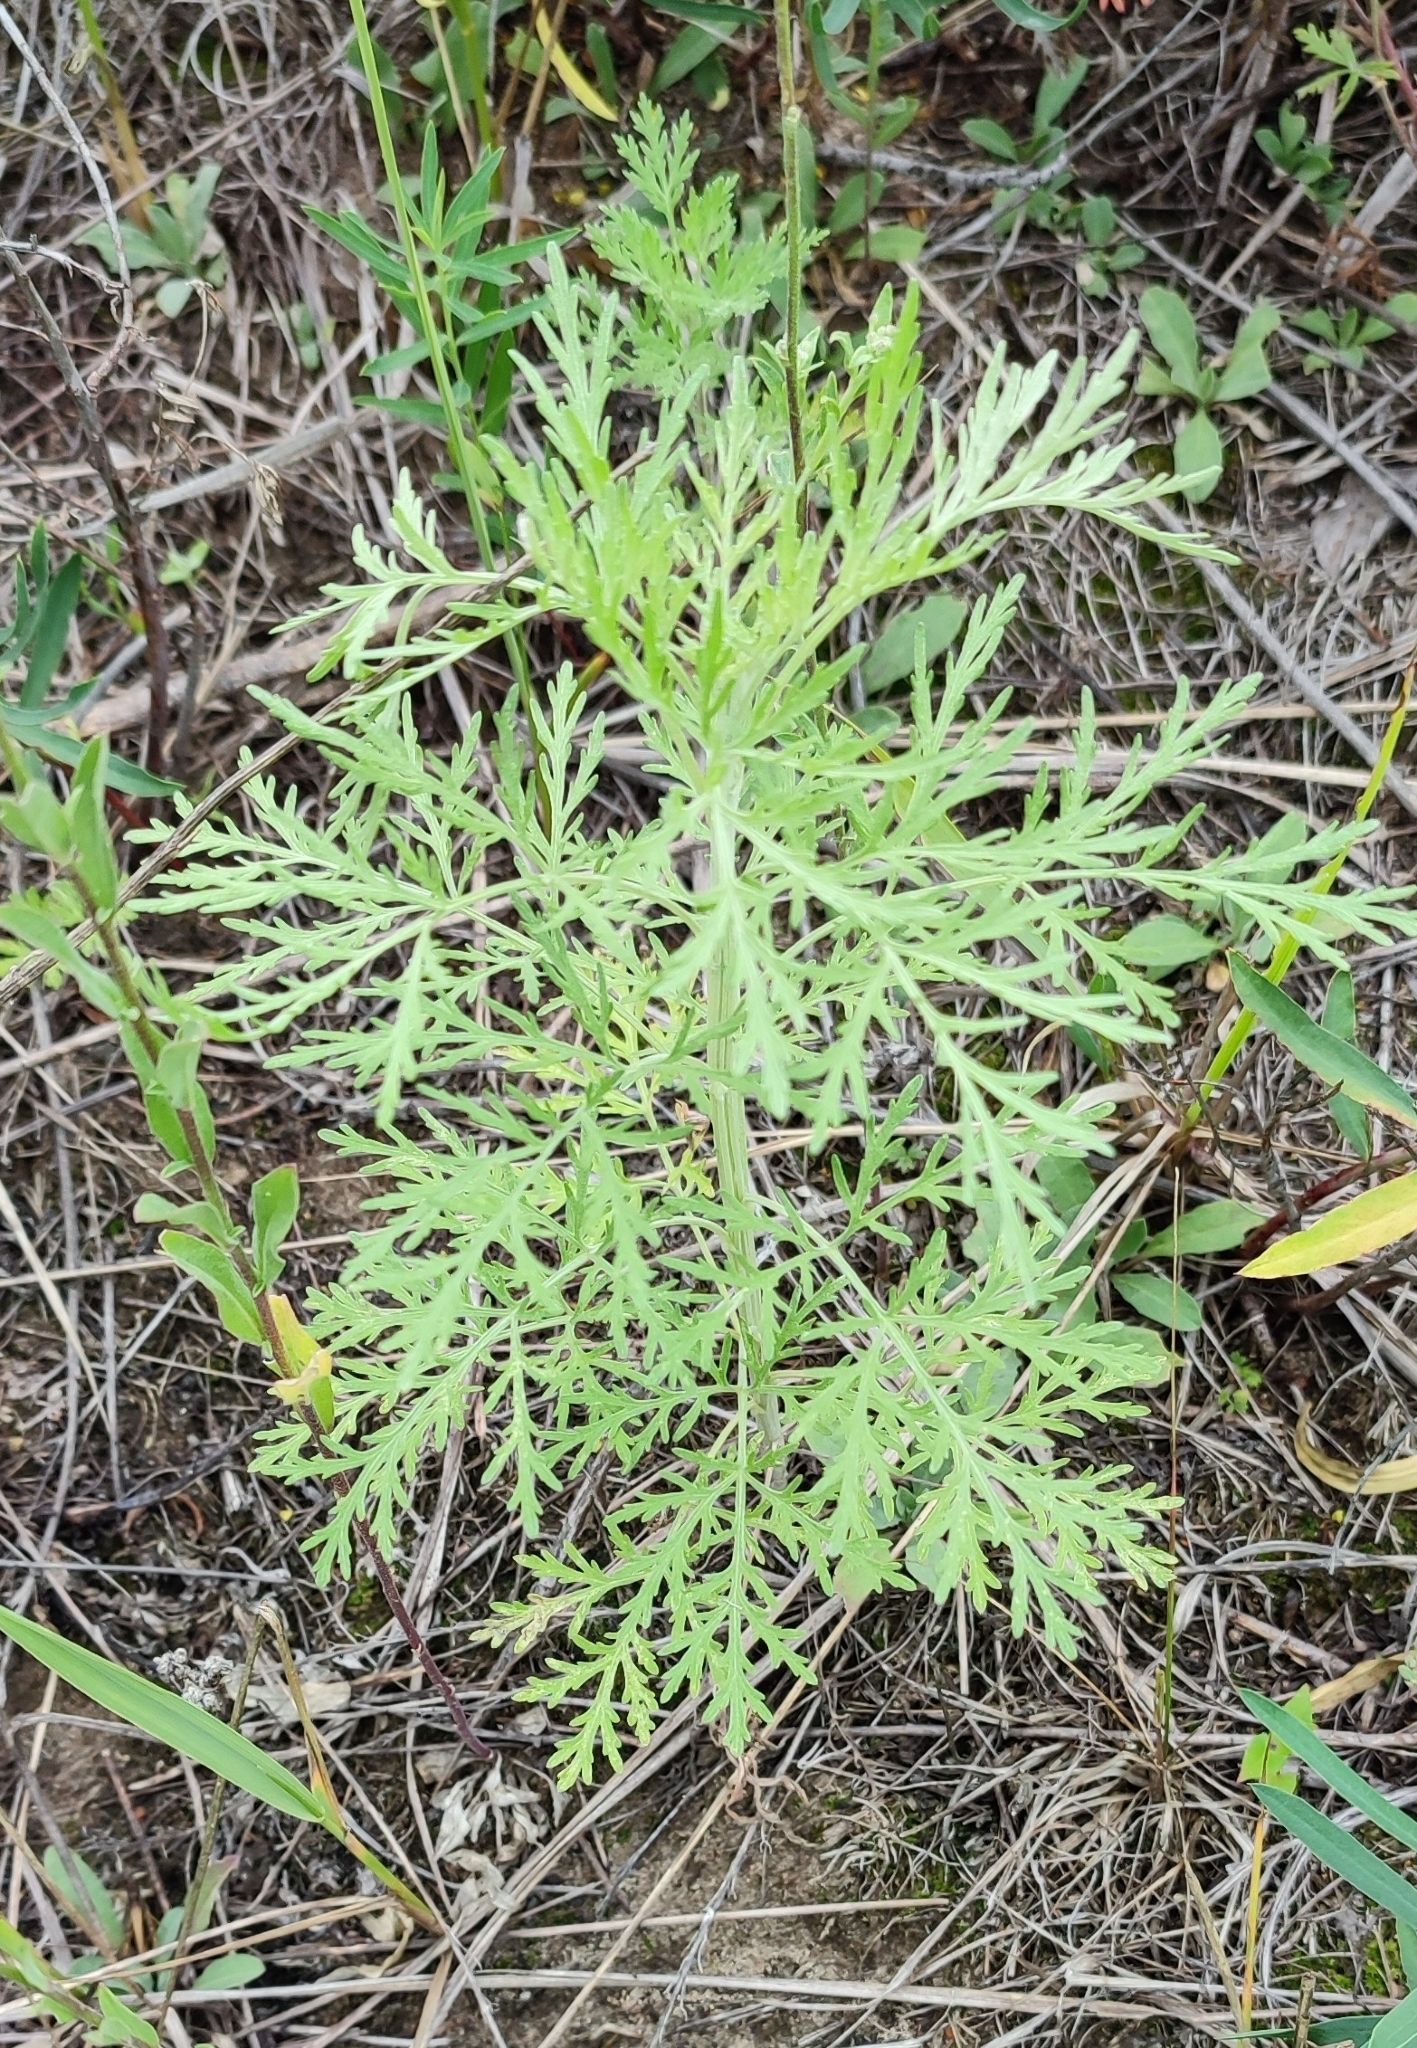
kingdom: Plantae
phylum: Tracheophyta
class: Magnoliopsida
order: Asterales
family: Asteraceae
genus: Artemisia
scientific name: Artemisia sieversiana
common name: Sieversian wormwood
